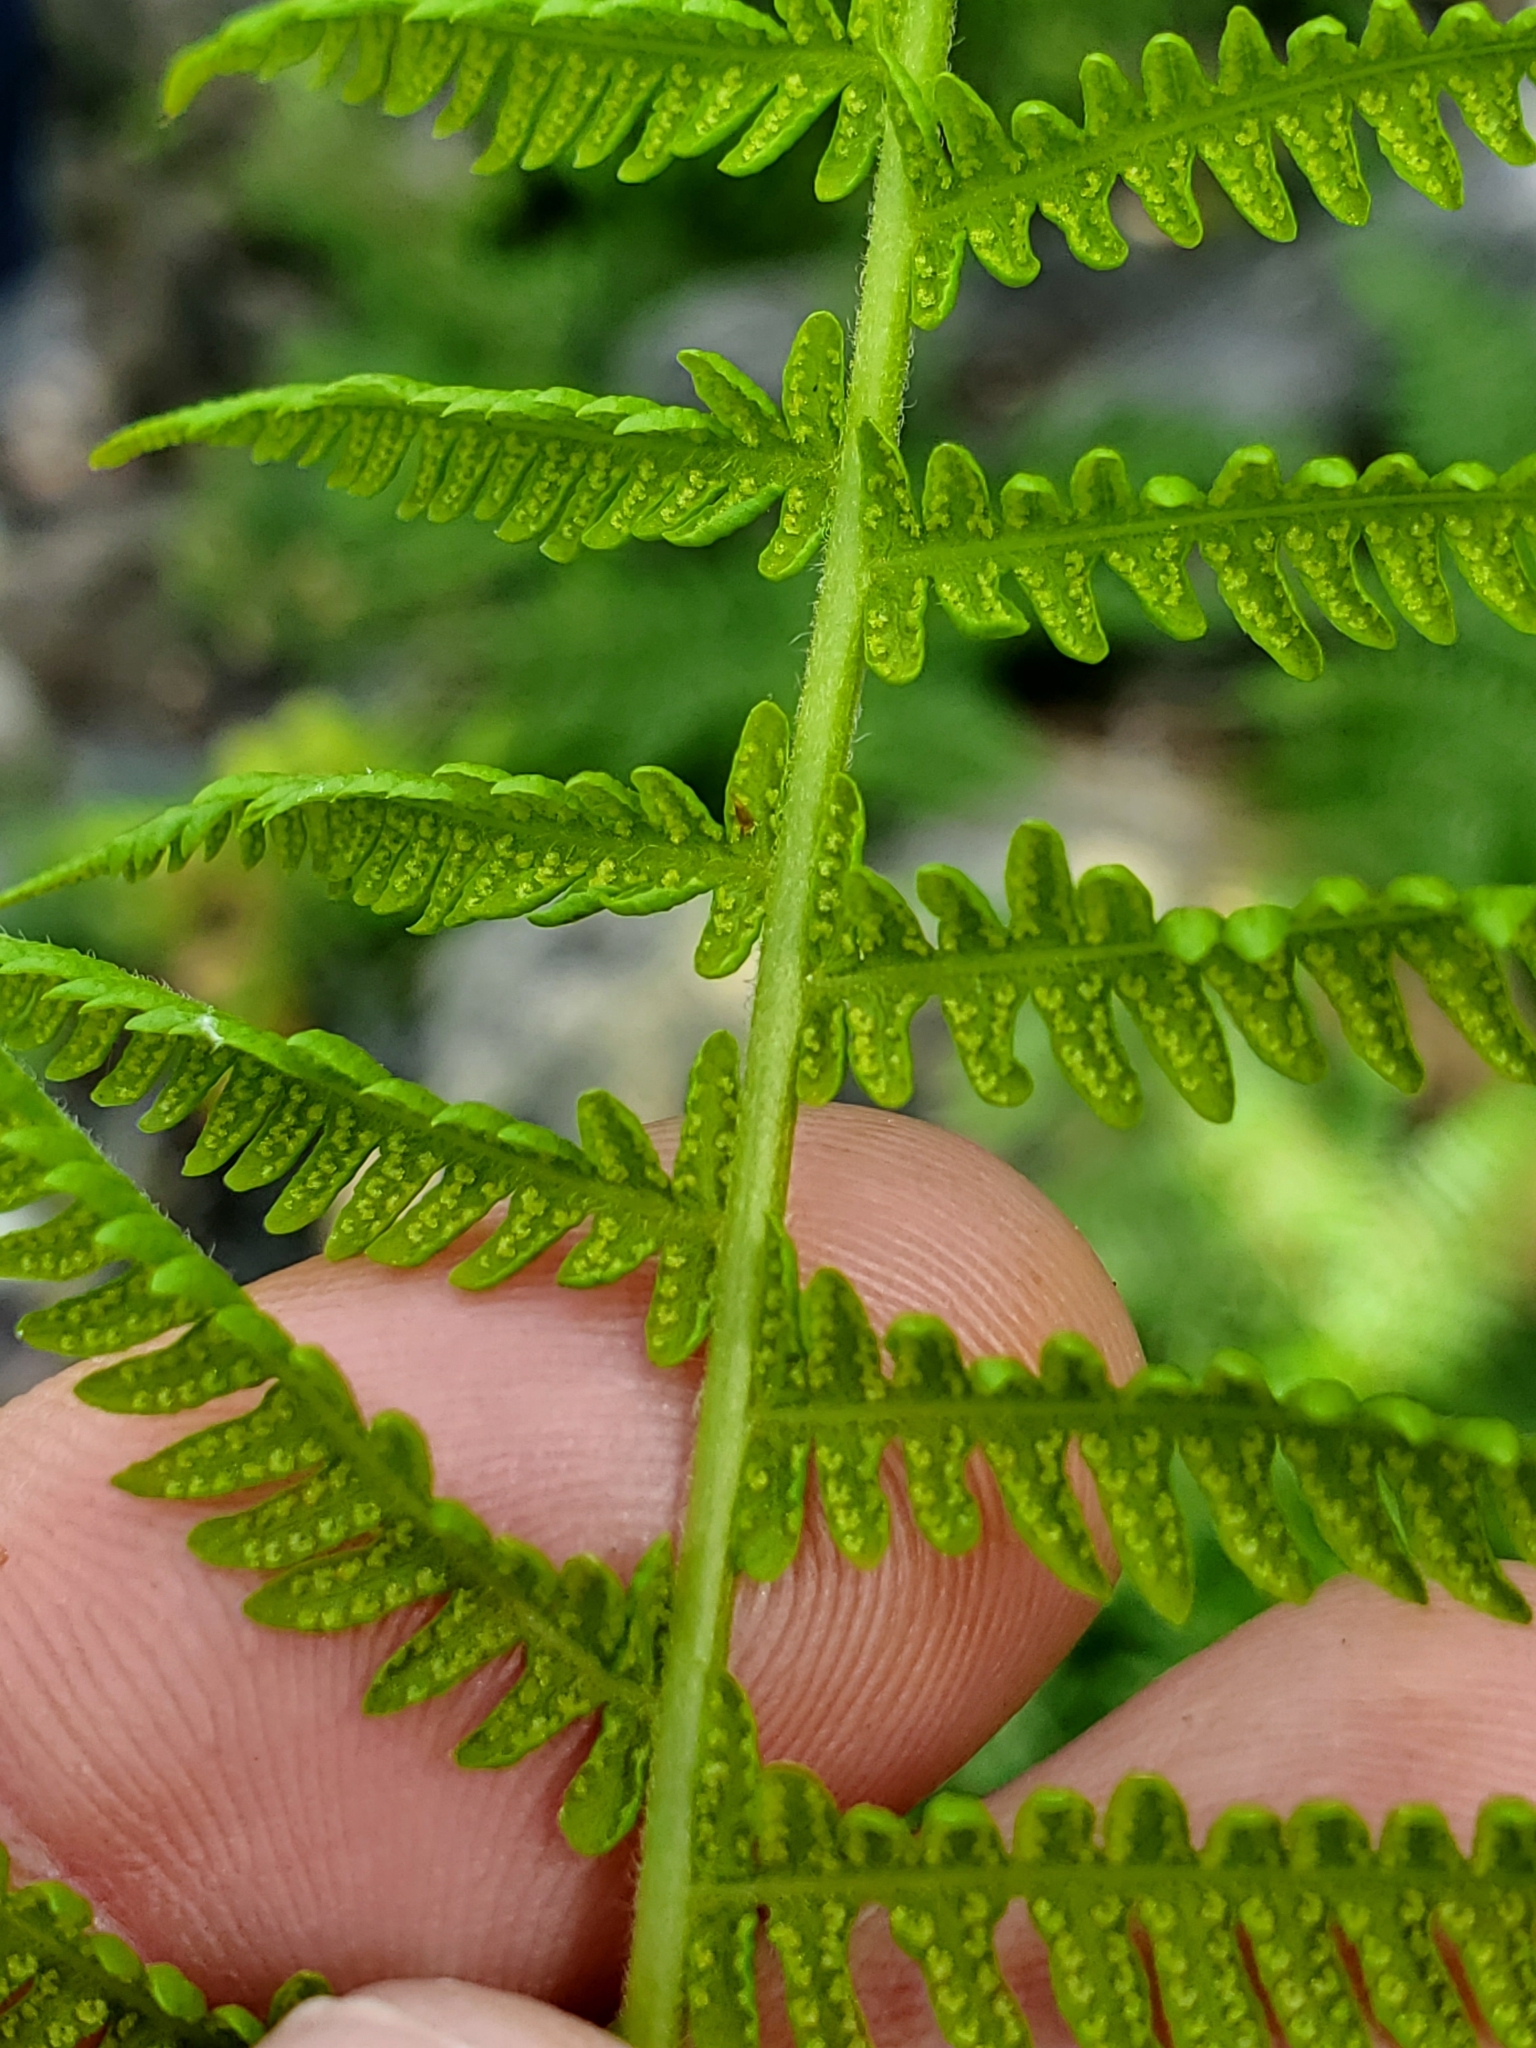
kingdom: Plantae
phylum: Tracheophyta
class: Polypodiopsida
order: Polypodiales
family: Thelypteridaceae
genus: Amauropelta
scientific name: Amauropelta nevadensis
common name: Nevada marsh fern
